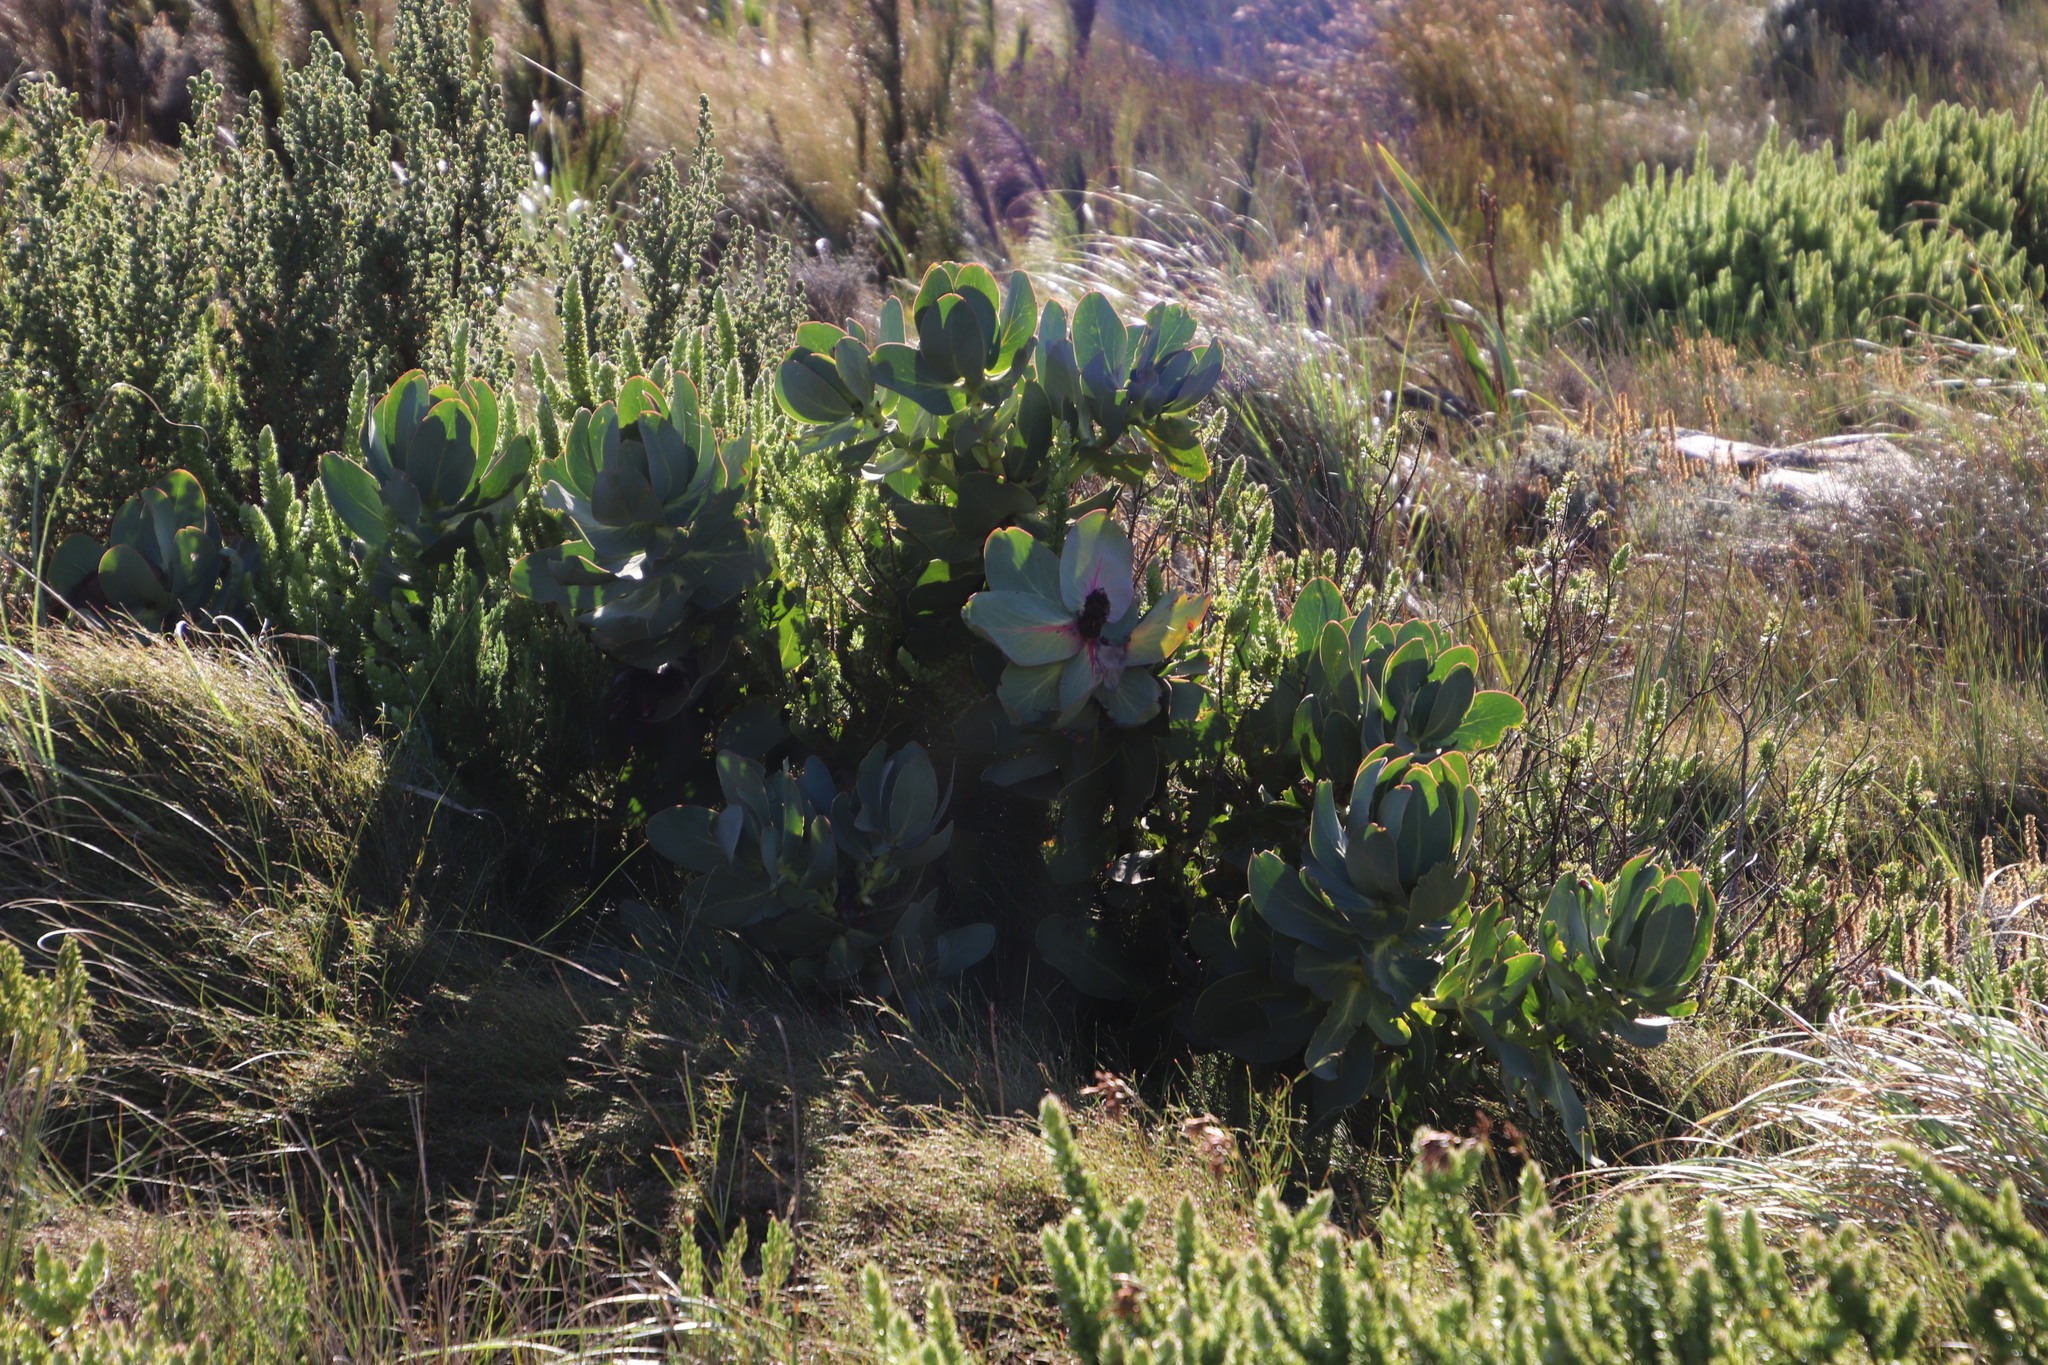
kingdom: Plantae
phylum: Tracheophyta
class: Magnoliopsida
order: Proteales
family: Proteaceae
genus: Protea
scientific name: Protea grandiceps
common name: Red sugarbush
